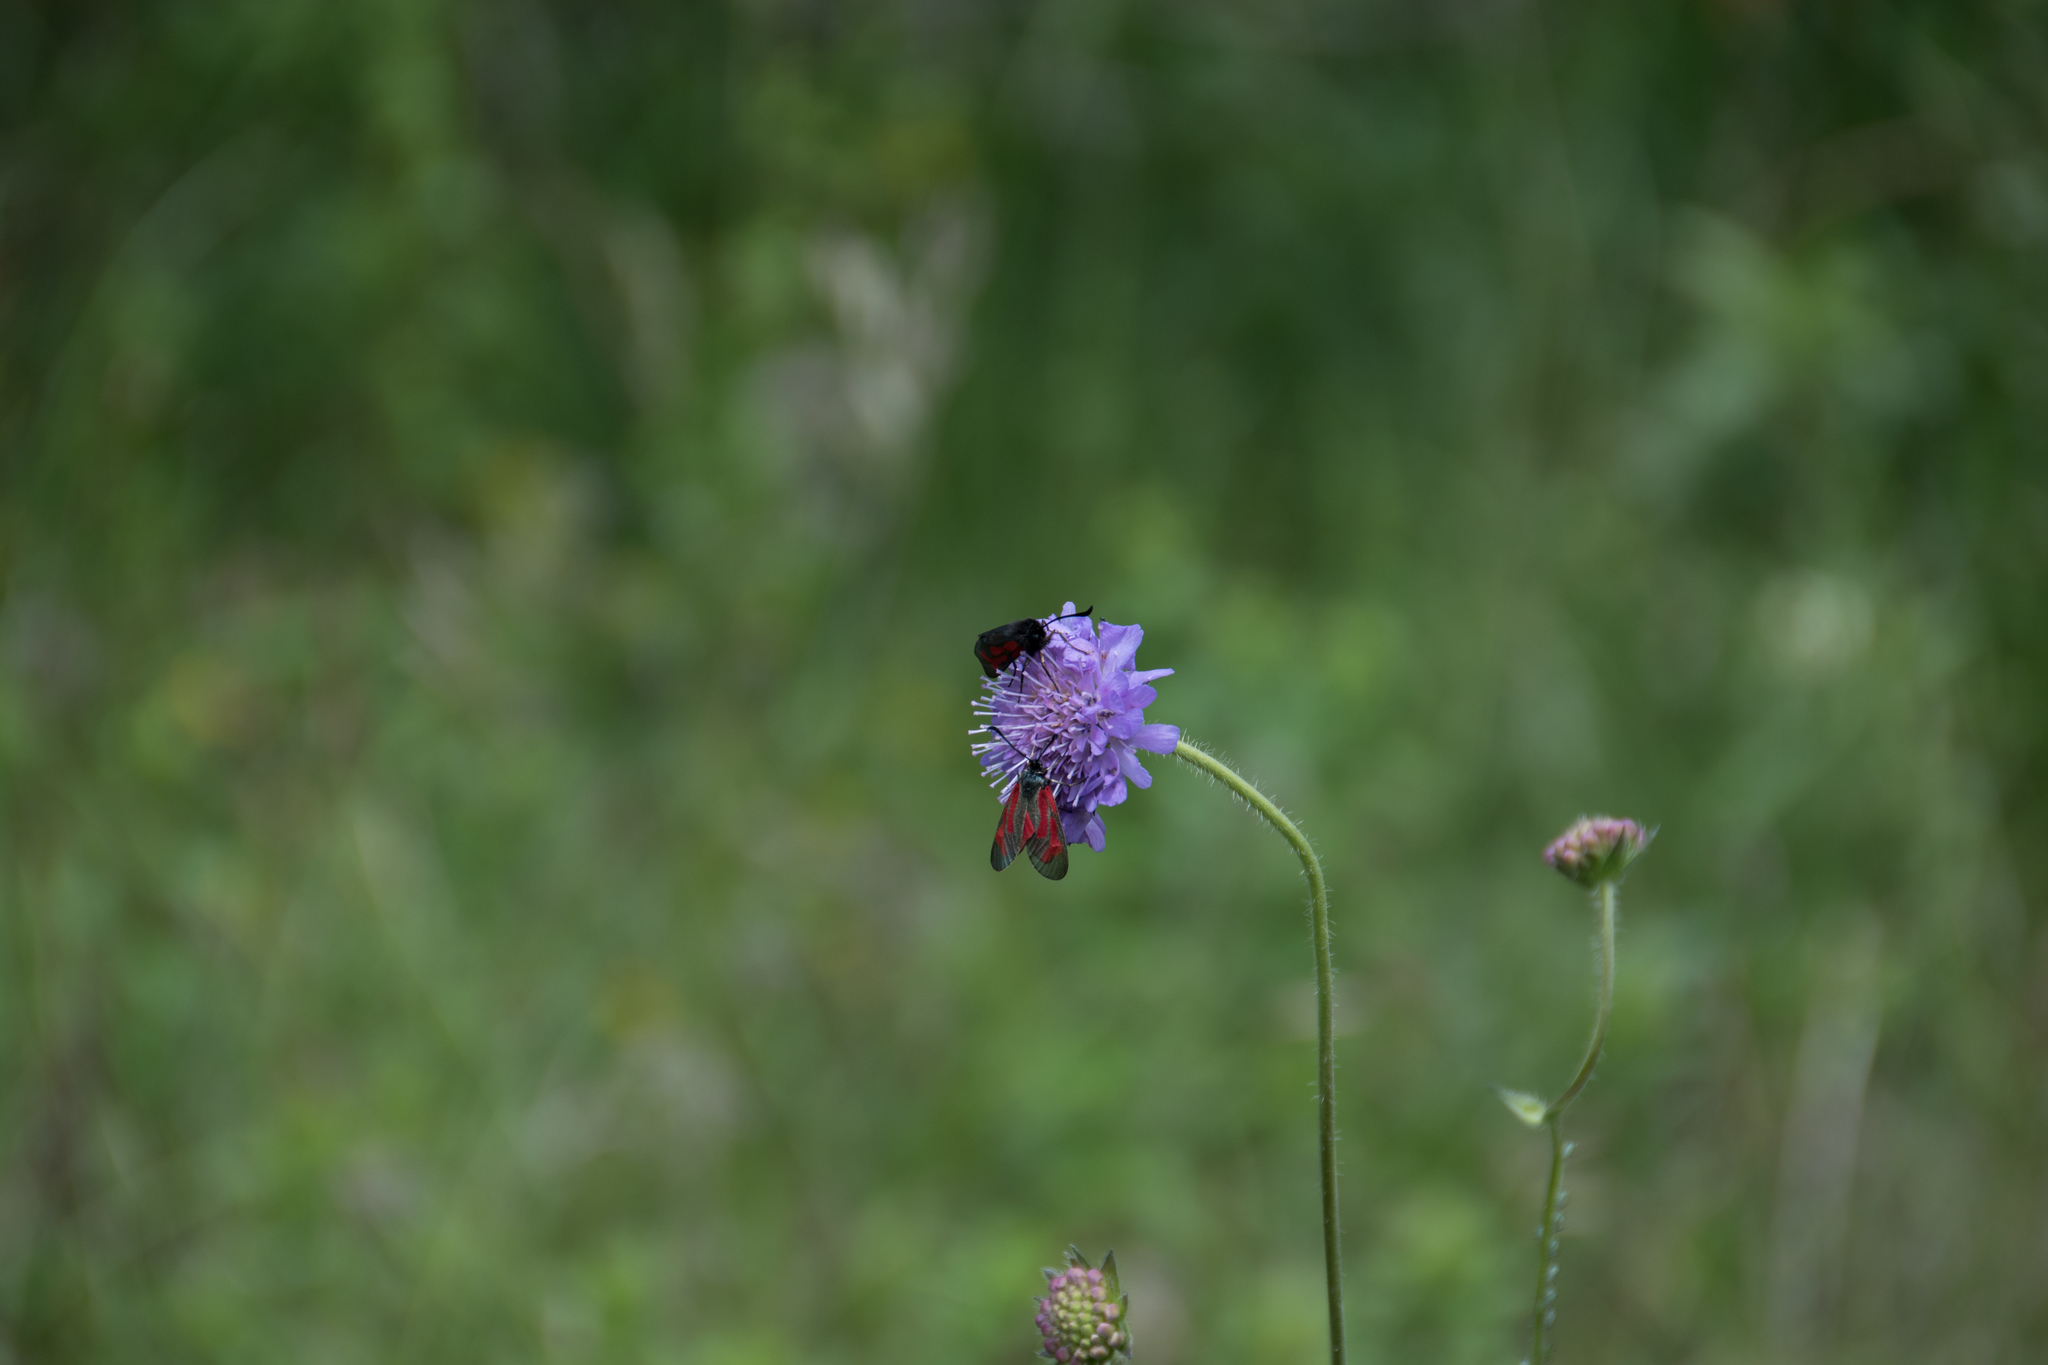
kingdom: Animalia
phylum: Arthropoda
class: Insecta
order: Lepidoptera
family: Zygaenidae
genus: Zygaena
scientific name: Zygaena
